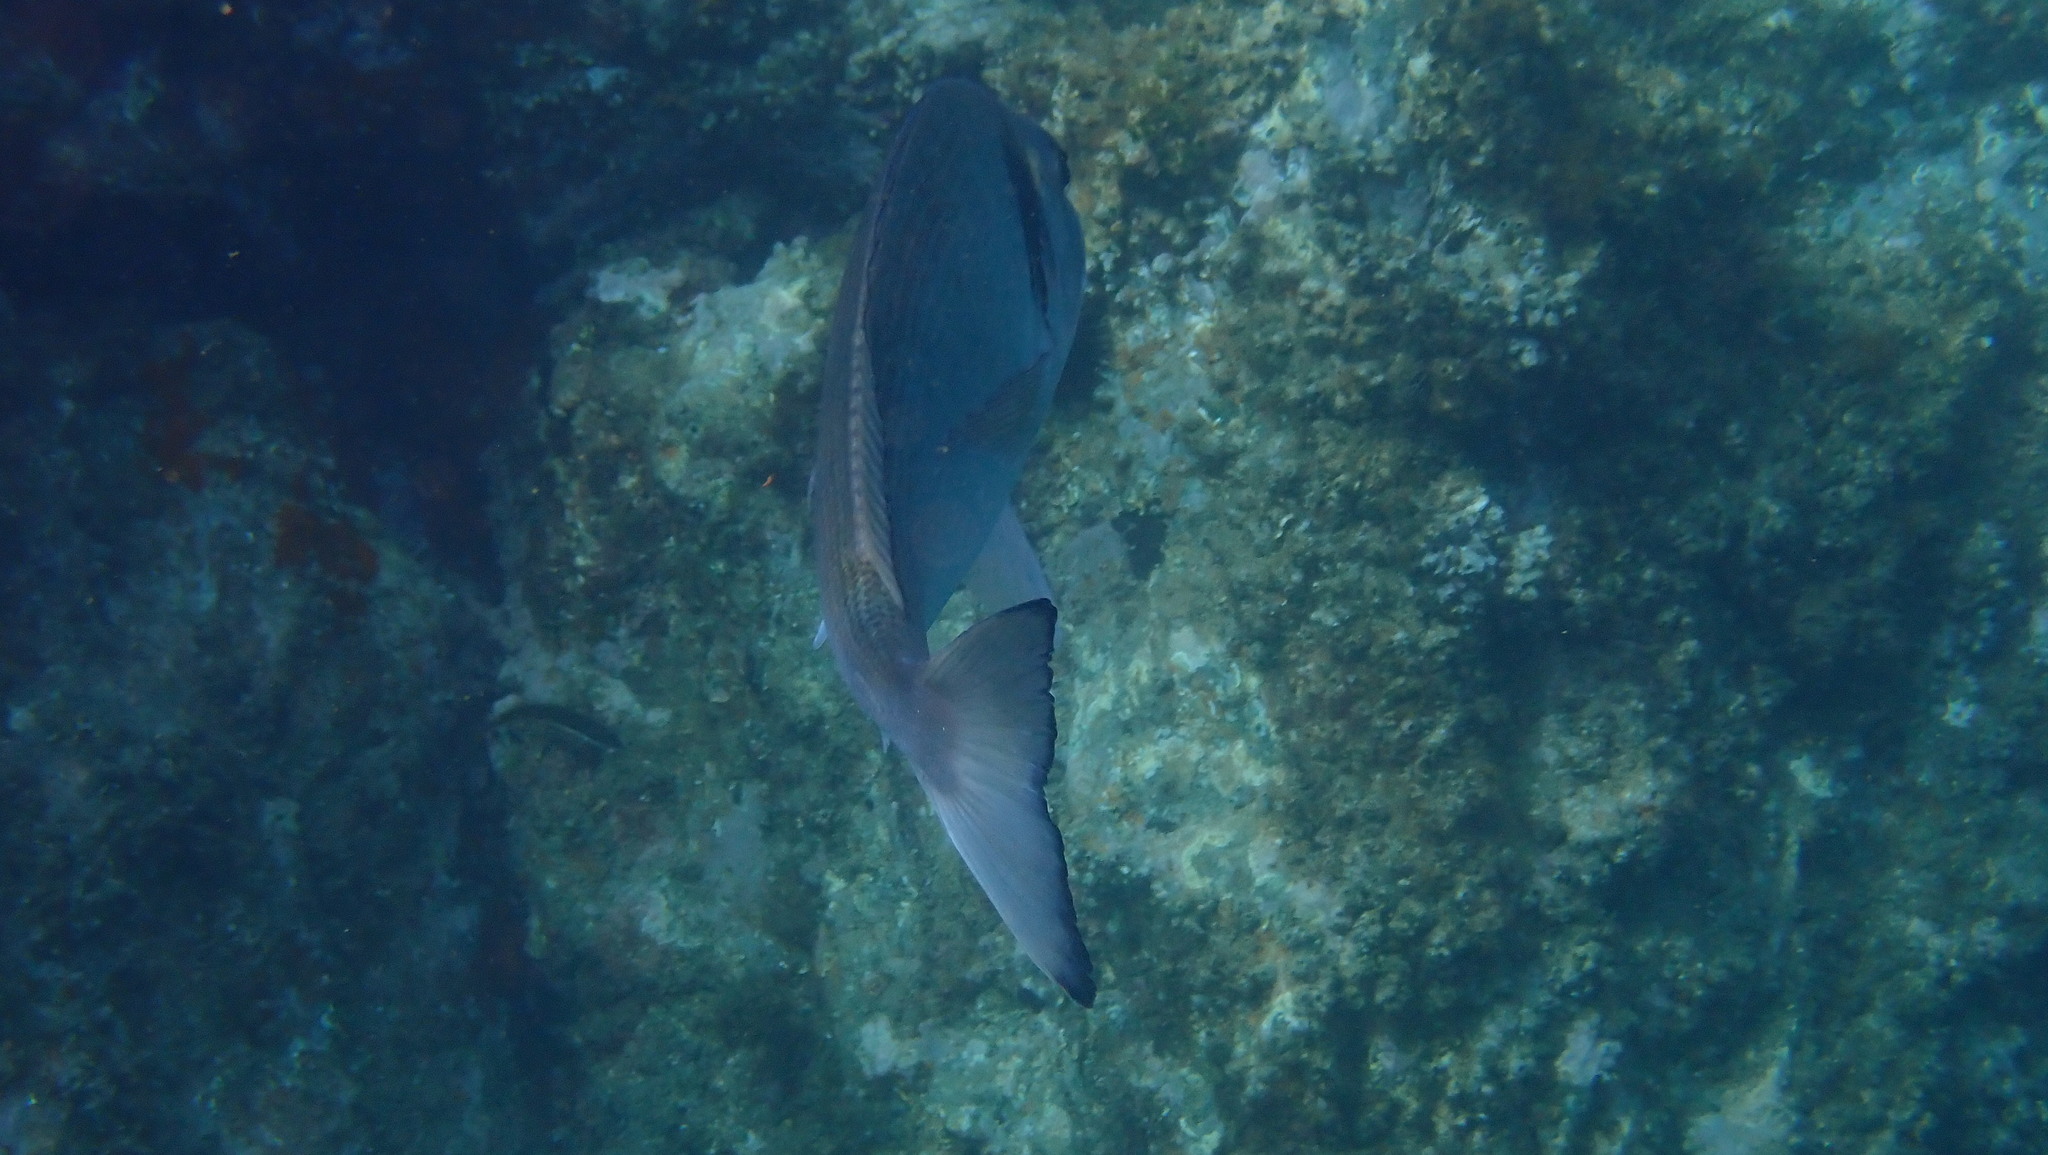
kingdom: Animalia
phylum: Chordata
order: Perciformes
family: Sparidae
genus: Sparus
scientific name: Sparus aurata
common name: Gilthead
